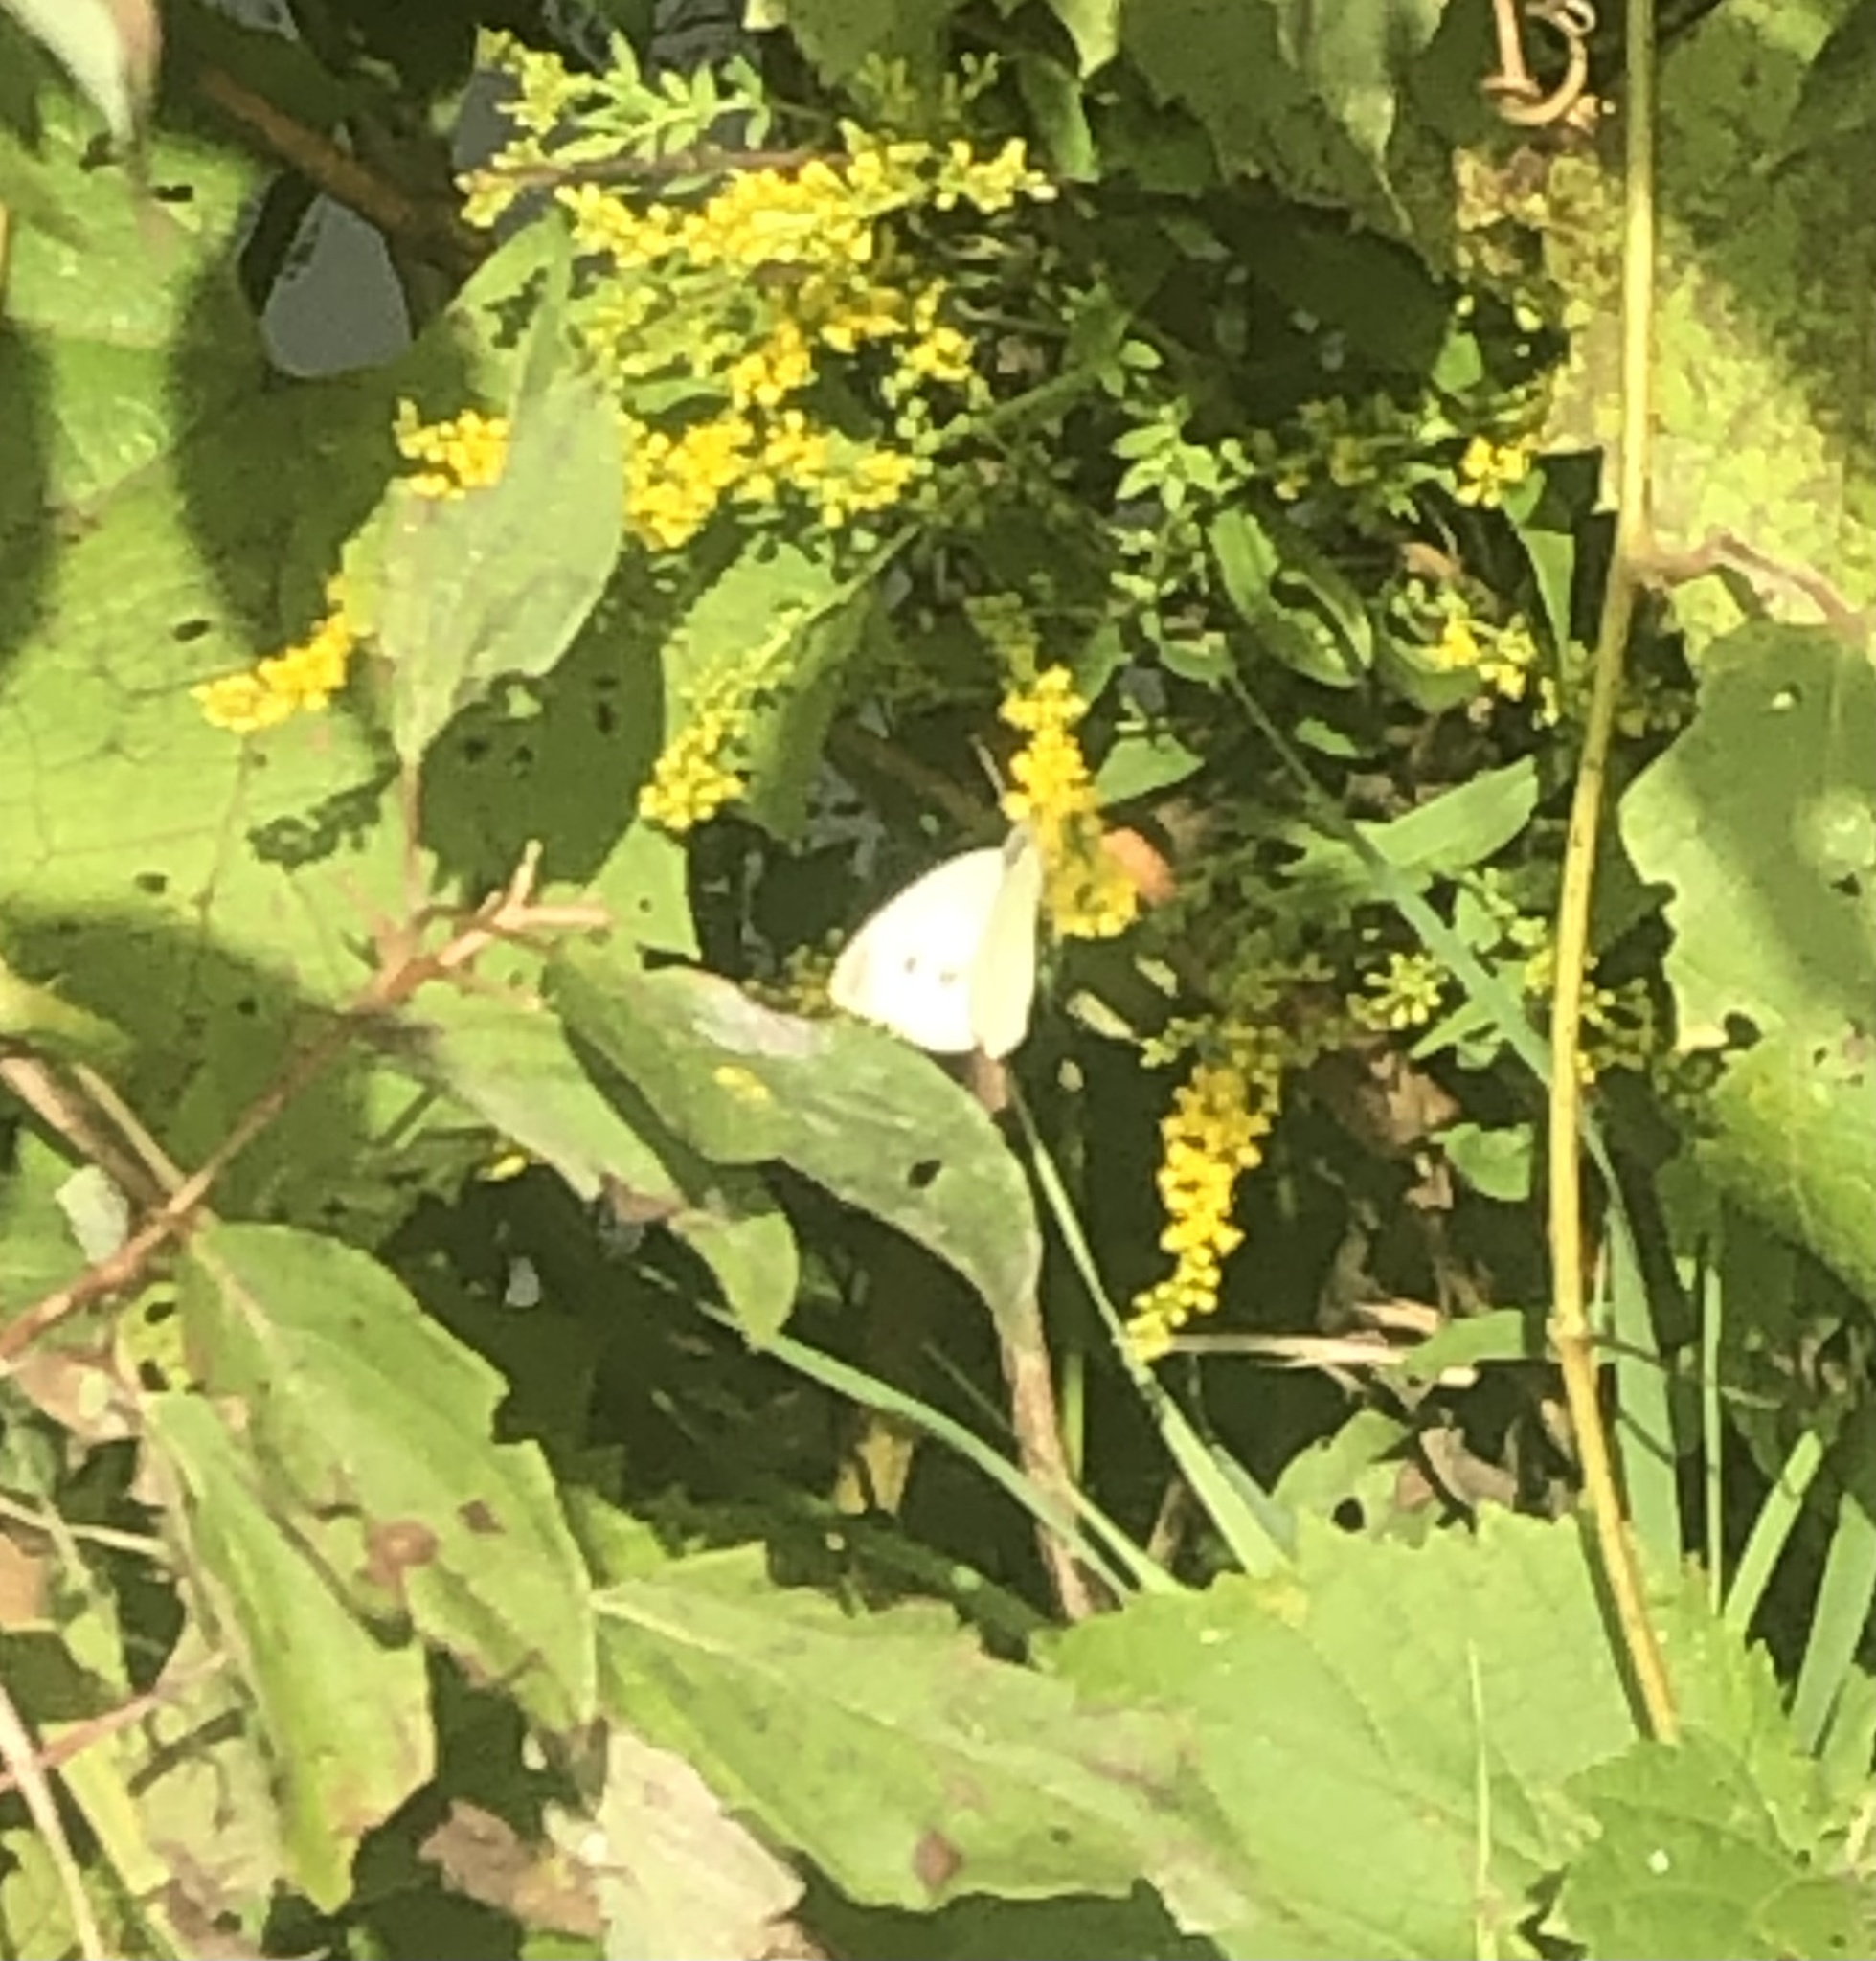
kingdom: Animalia
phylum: Arthropoda
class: Insecta
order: Lepidoptera
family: Pieridae
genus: Pieris
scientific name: Pieris rapae
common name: Small white
